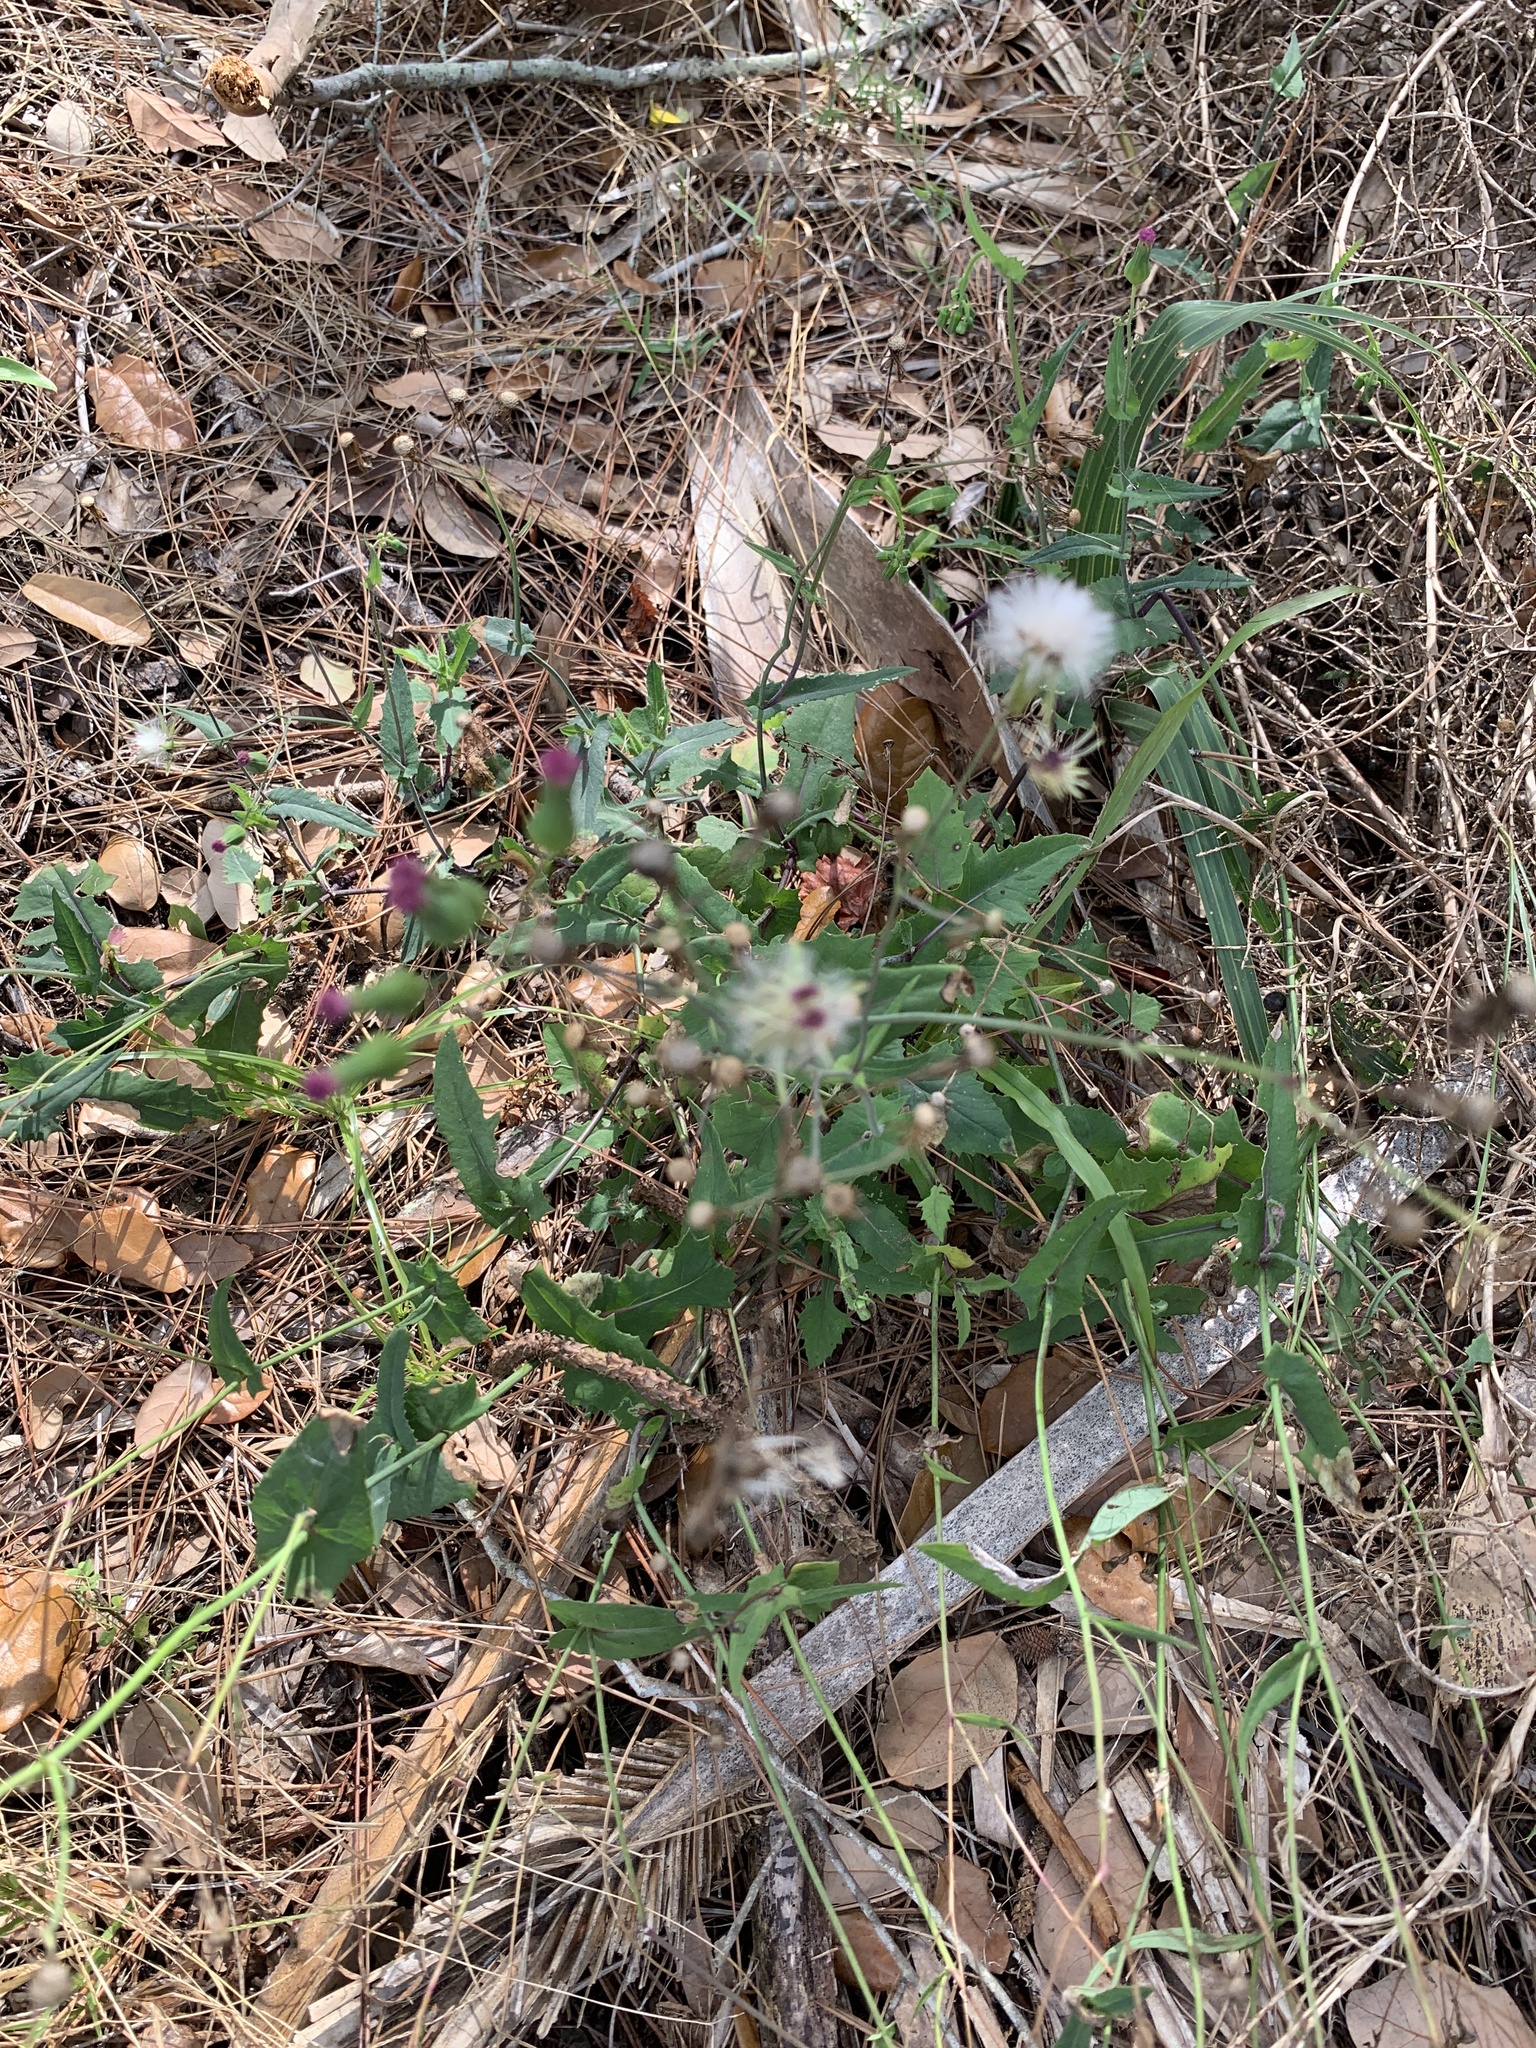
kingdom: Plantae
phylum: Tracheophyta
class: Magnoliopsida
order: Asterales
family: Asteraceae
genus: Emilia
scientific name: Emilia sonchifolia
